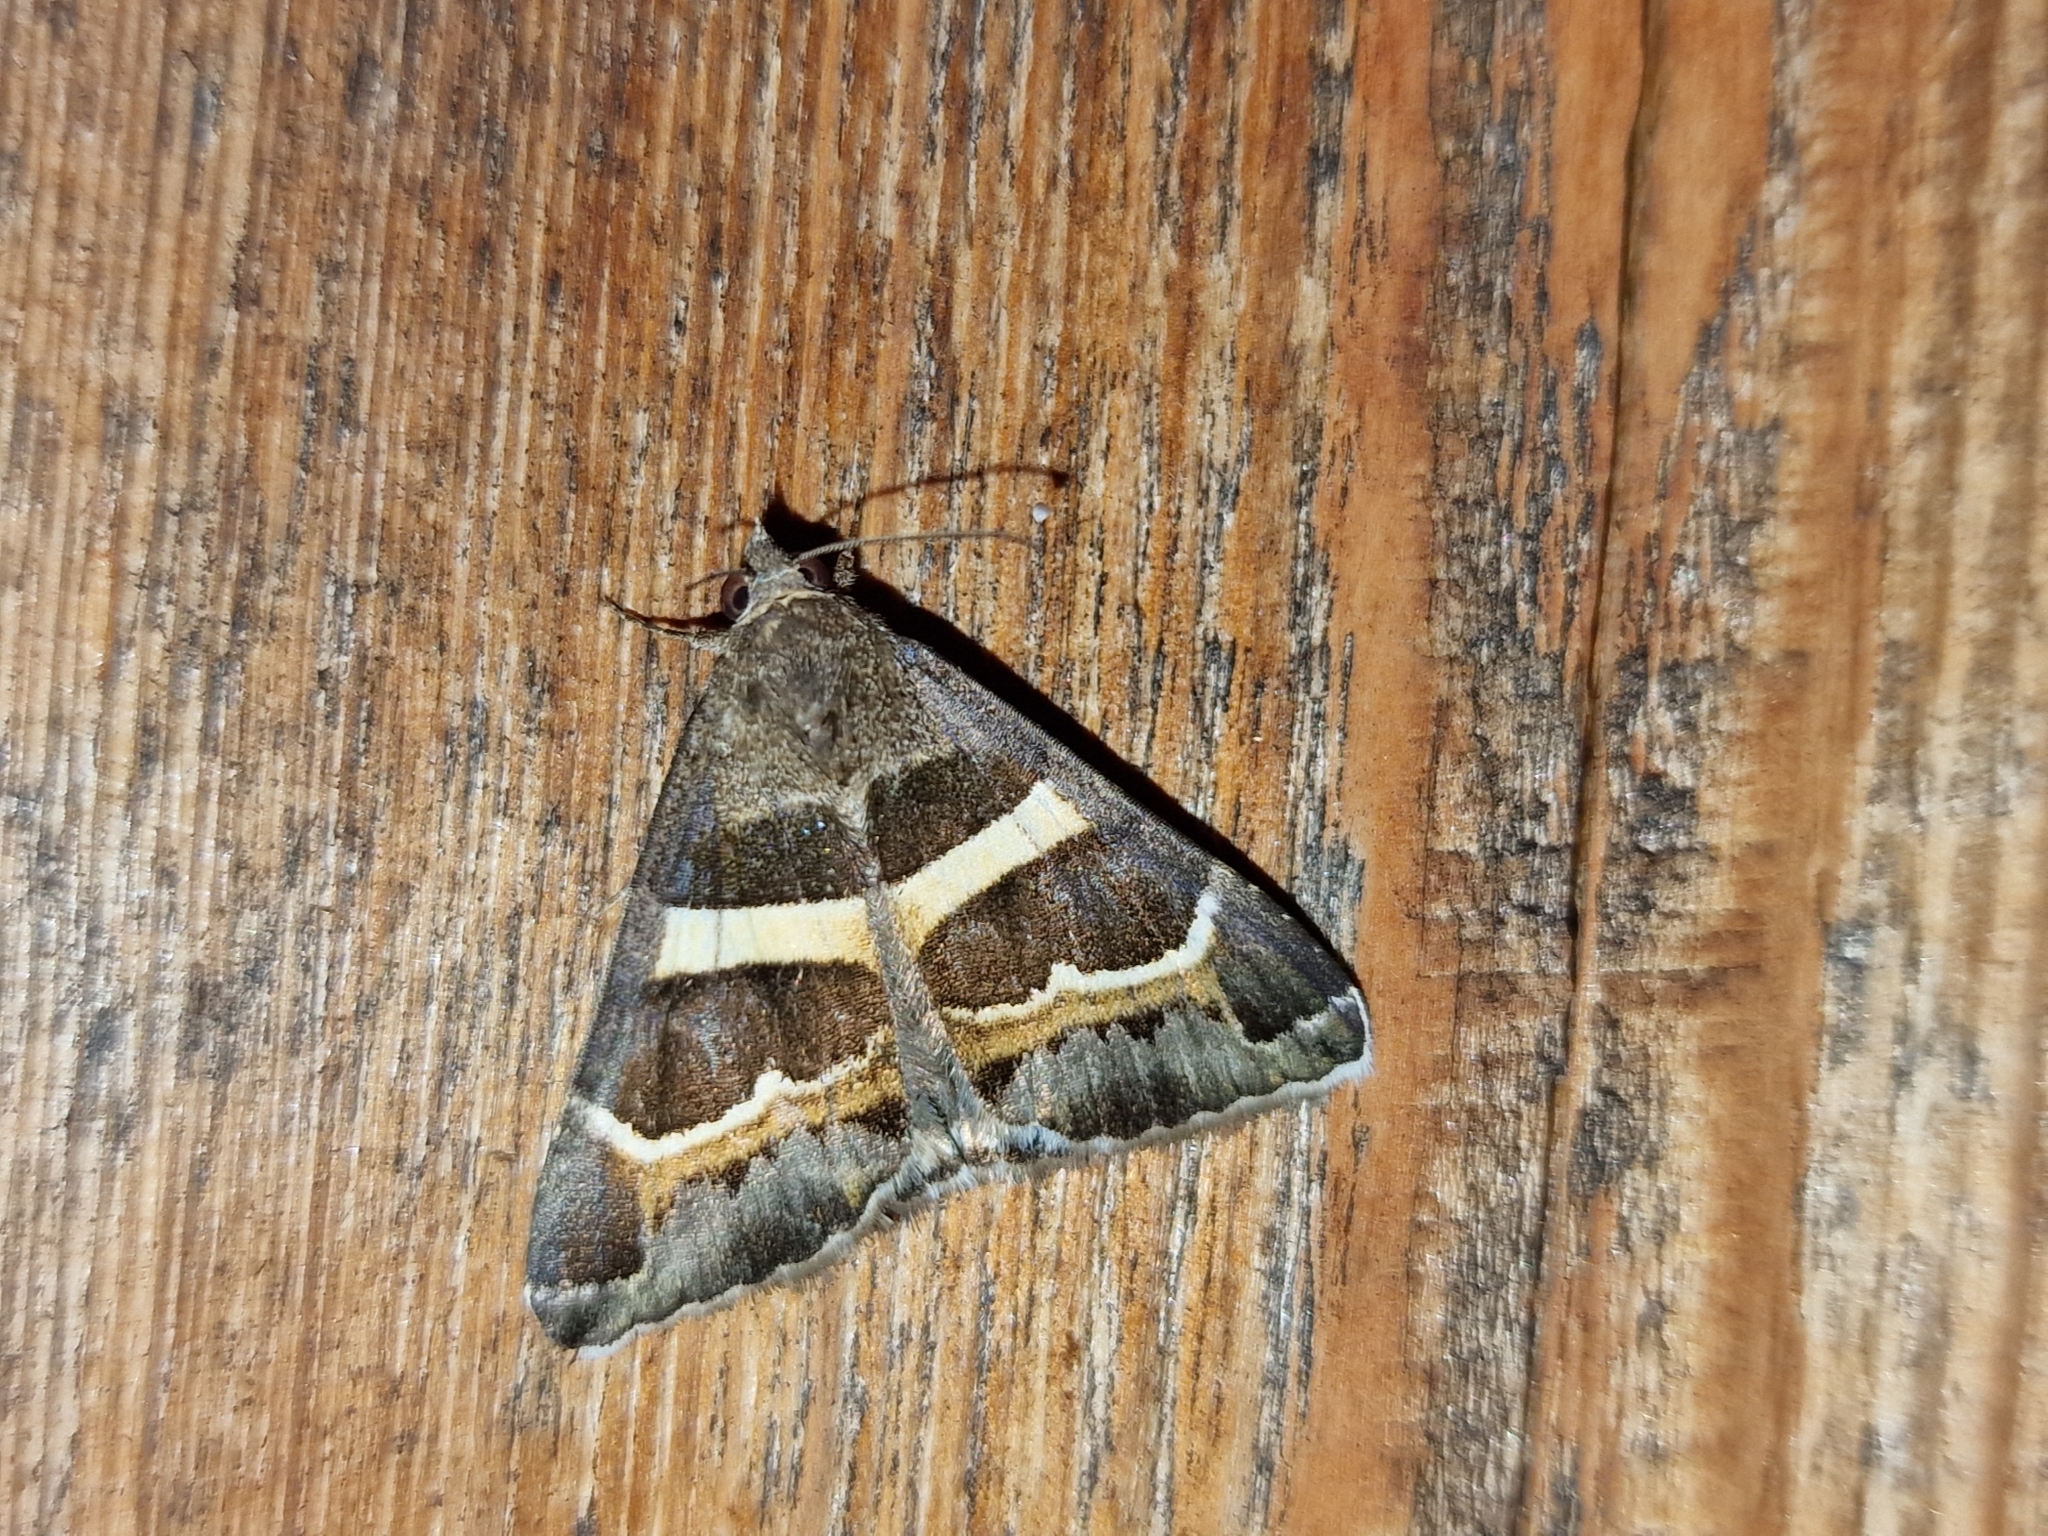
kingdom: Animalia
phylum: Arthropoda
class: Insecta
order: Lepidoptera
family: Erebidae
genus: Grammodes
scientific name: Grammodes stolida
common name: Geometrician
